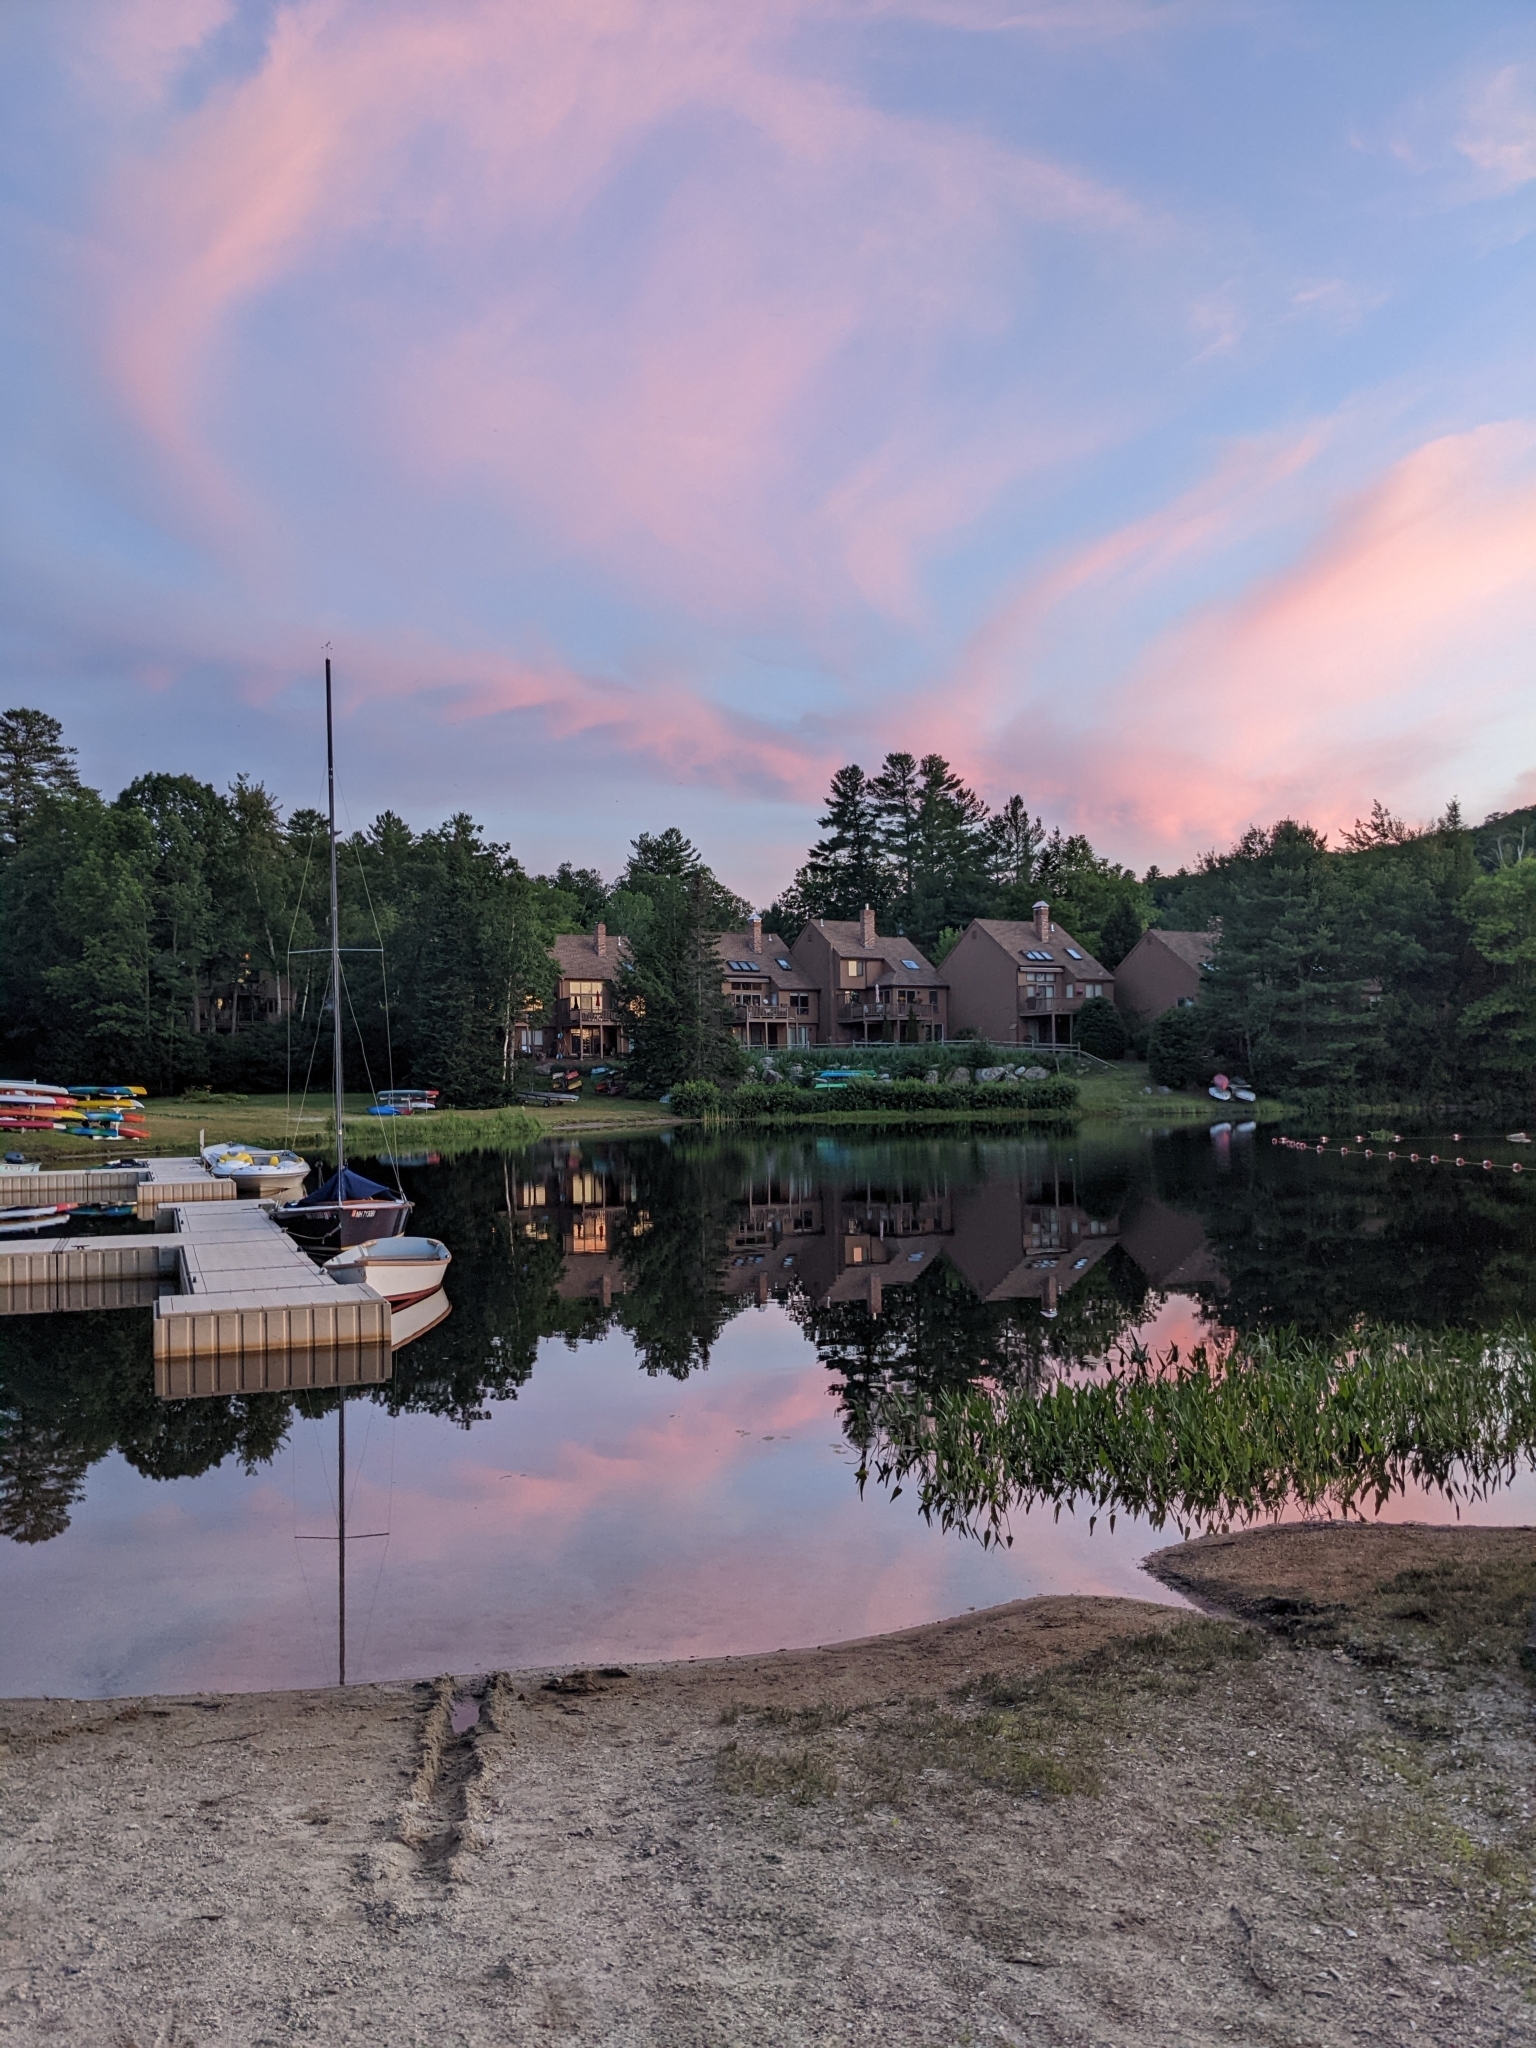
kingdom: Plantae
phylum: Tracheophyta
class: Pinopsida
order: Pinales
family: Pinaceae
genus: Pinus
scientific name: Pinus strobus
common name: Weymouth pine
